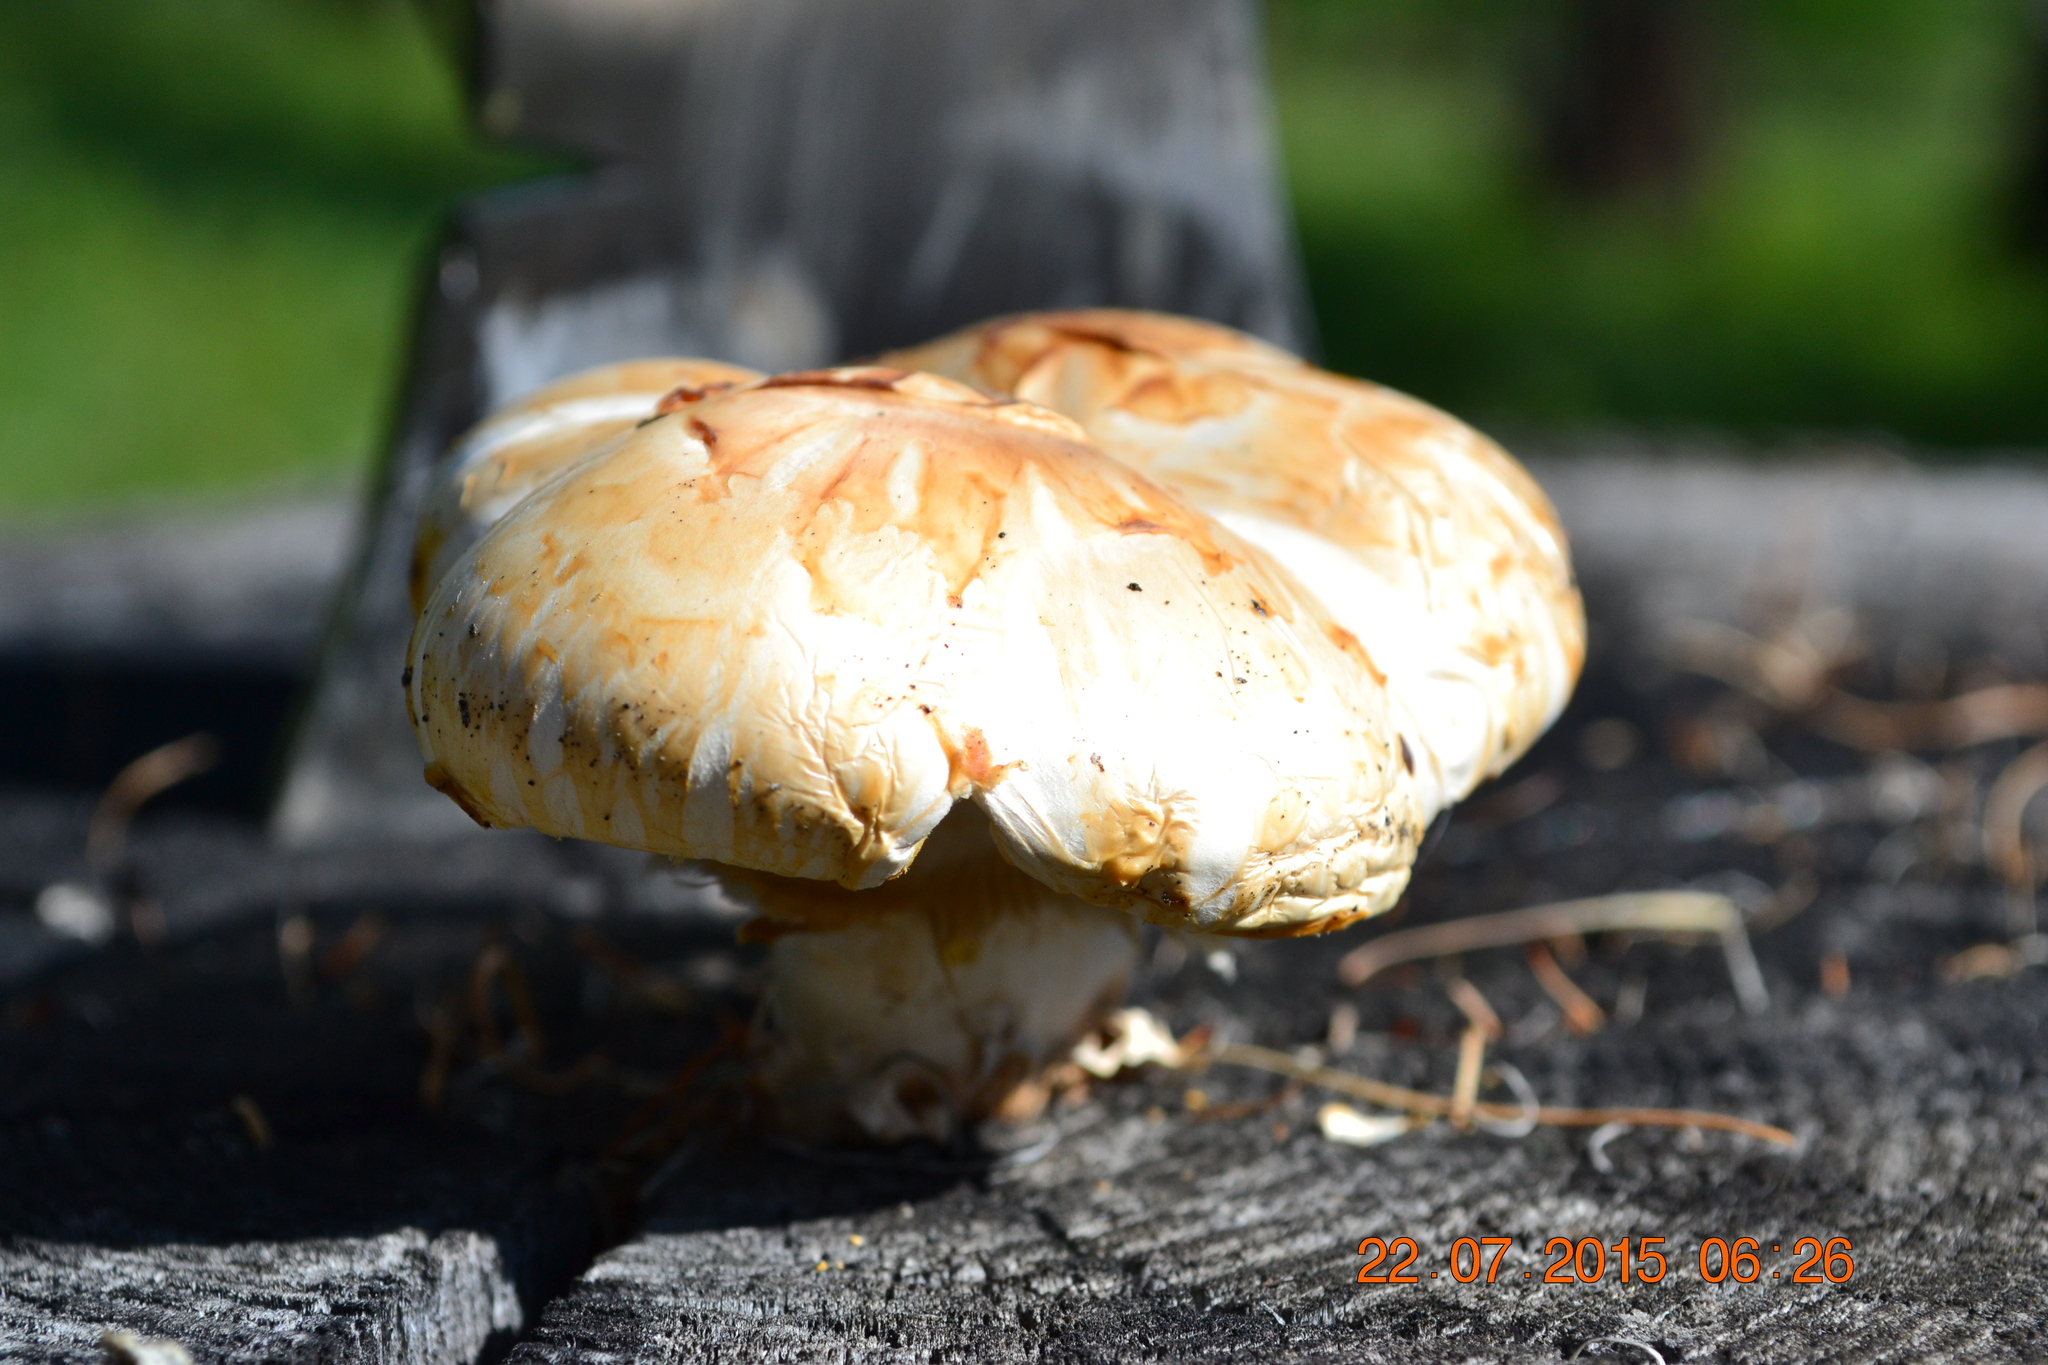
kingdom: Fungi
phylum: Basidiomycota
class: Agaricomycetes
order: Gloeophyllales
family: Gloeophyllaceae
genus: Neolentinus
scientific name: Neolentinus lepideus
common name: Scaly sawgill
